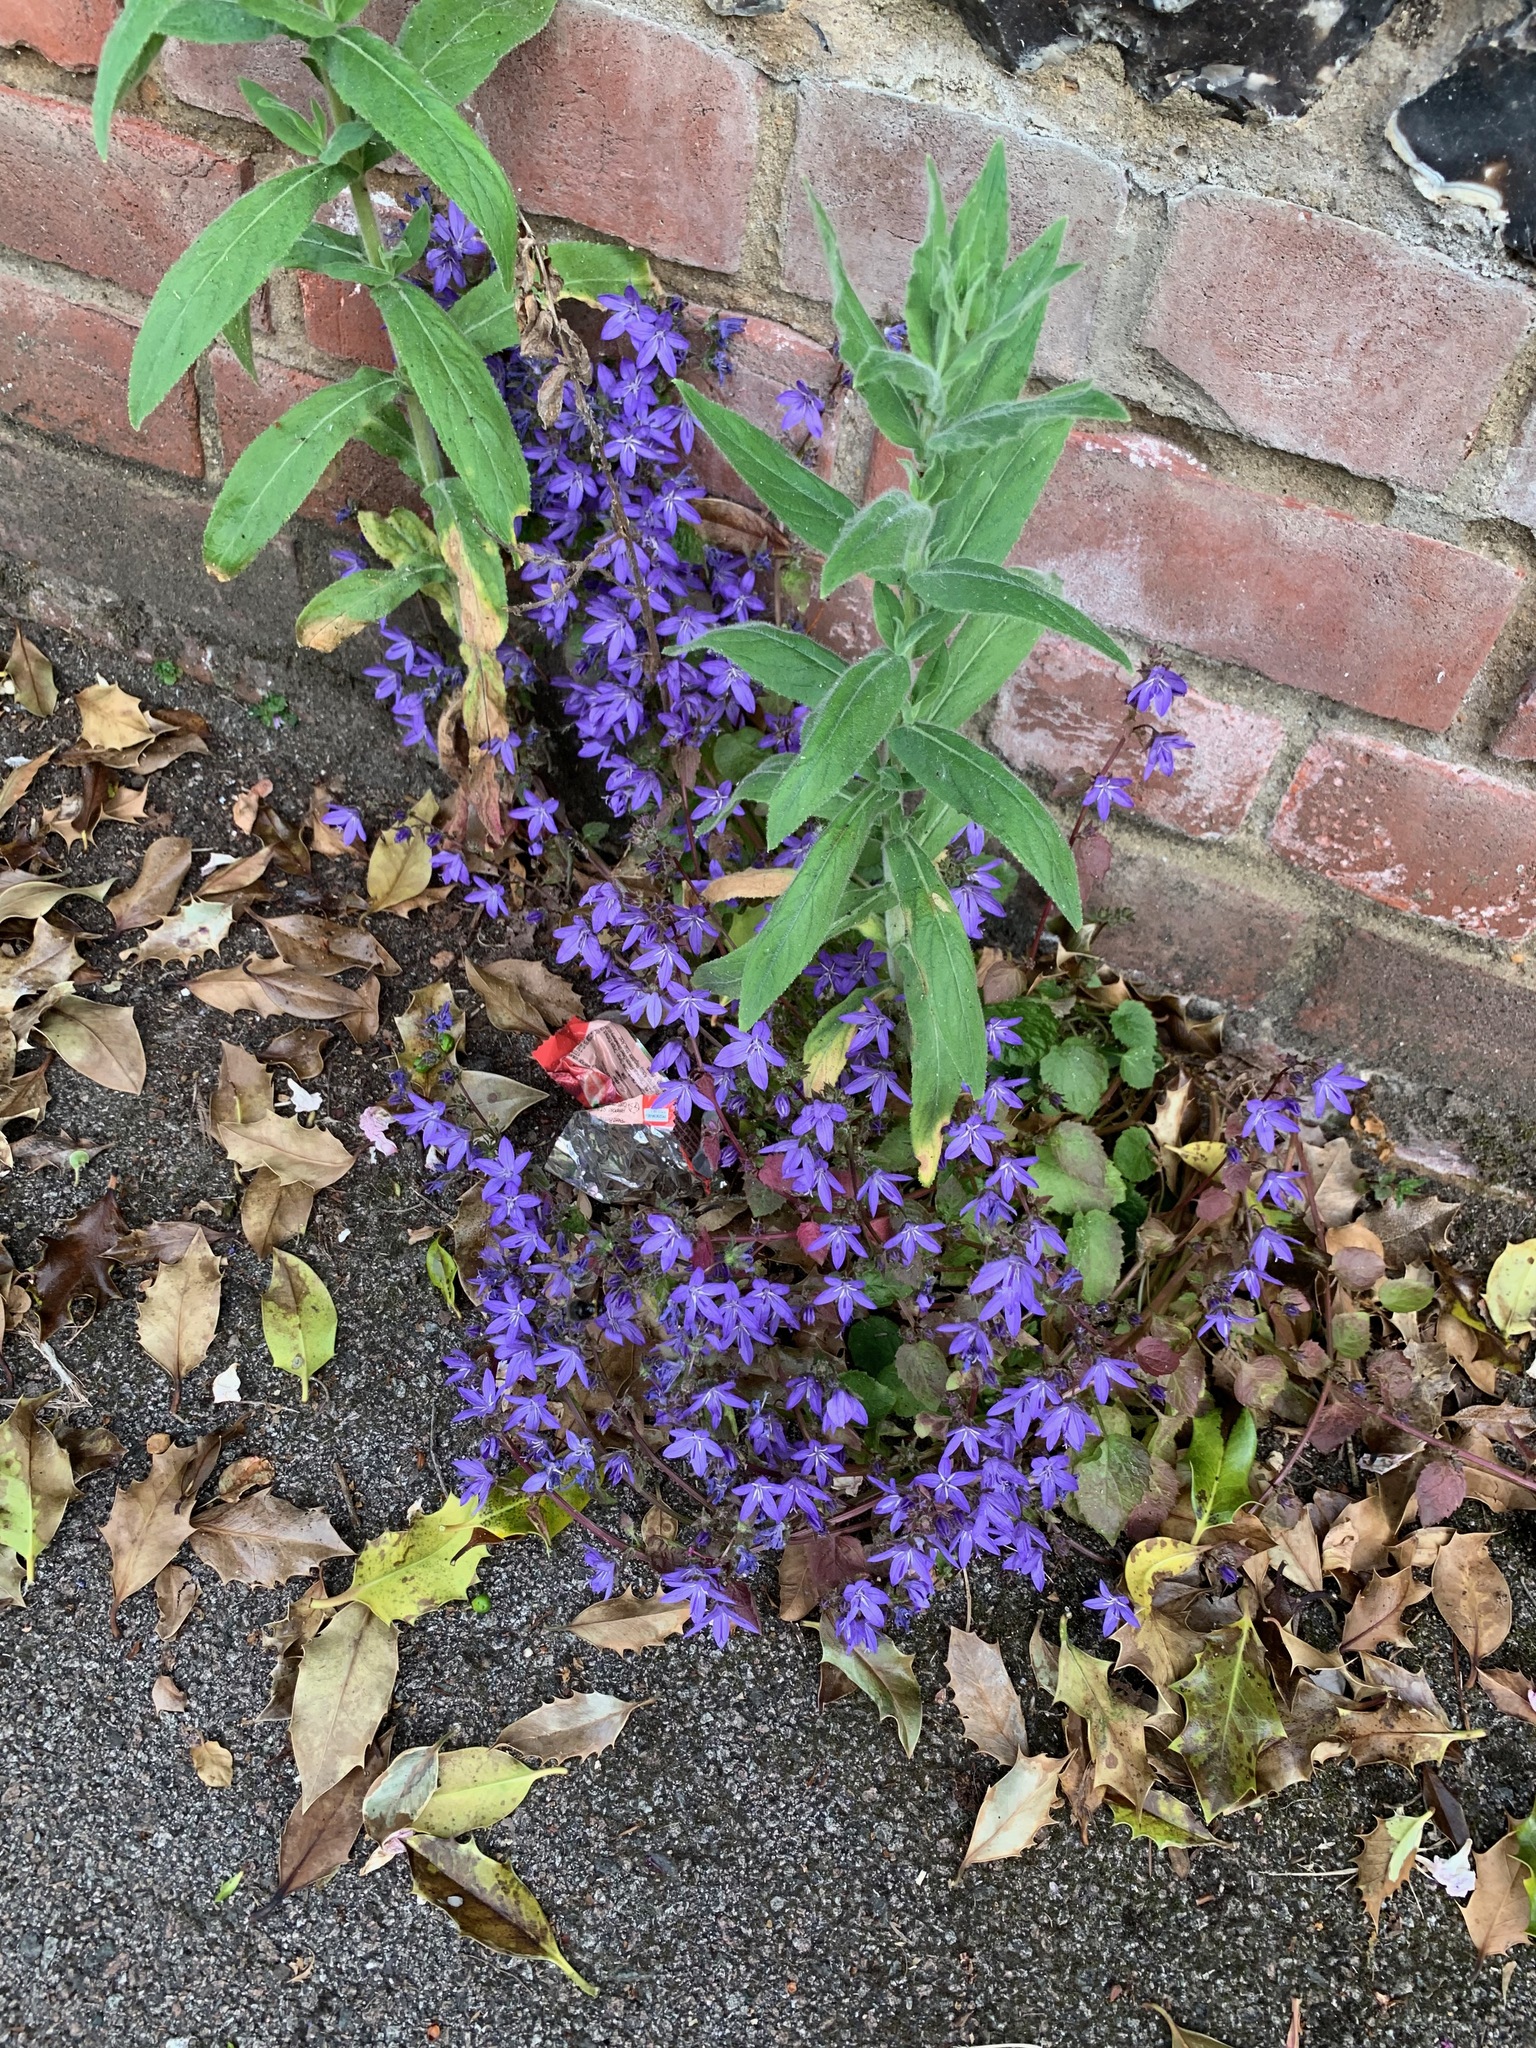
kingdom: Plantae
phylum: Tracheophyta
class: Magnoliopsida
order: Asterales
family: Campanulaceae
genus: Campanula
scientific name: Campanula poscharskyana
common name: Trailing bellflower
